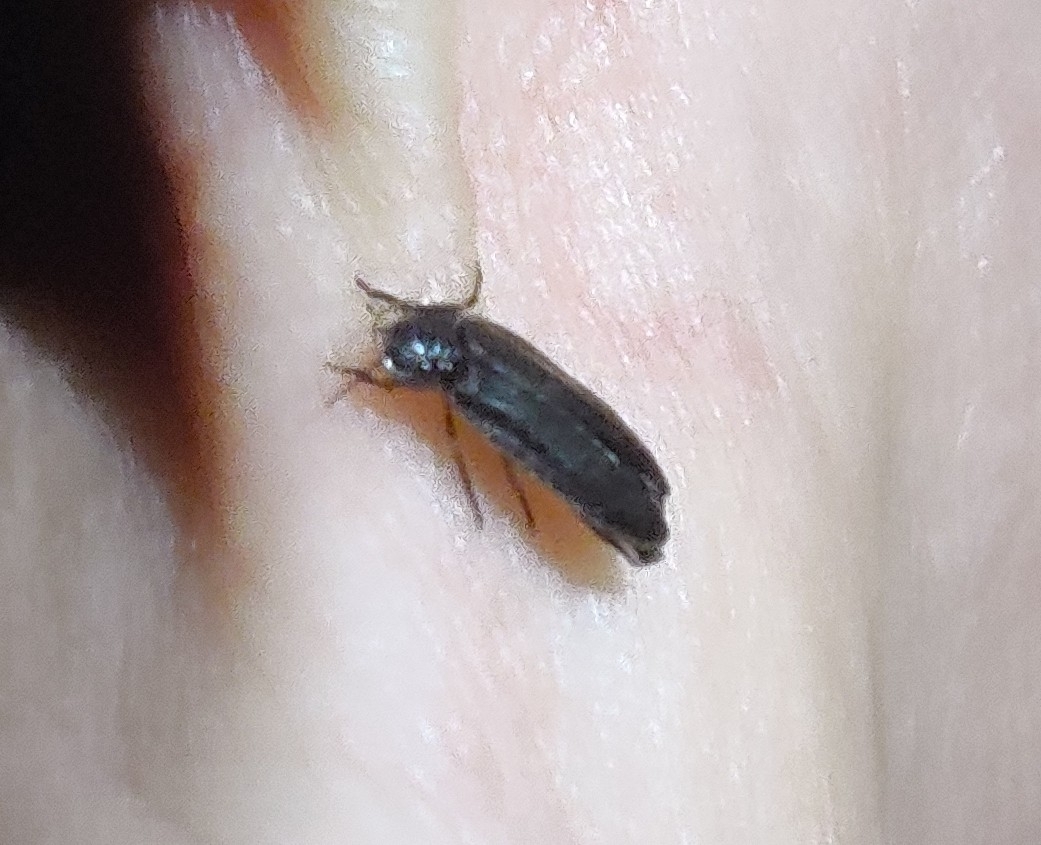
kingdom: Animalia
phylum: Arthropoda
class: Insecta
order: Coleoptera
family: Lampyridae
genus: Lamprohiza
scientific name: Lamprohiza splendidula
